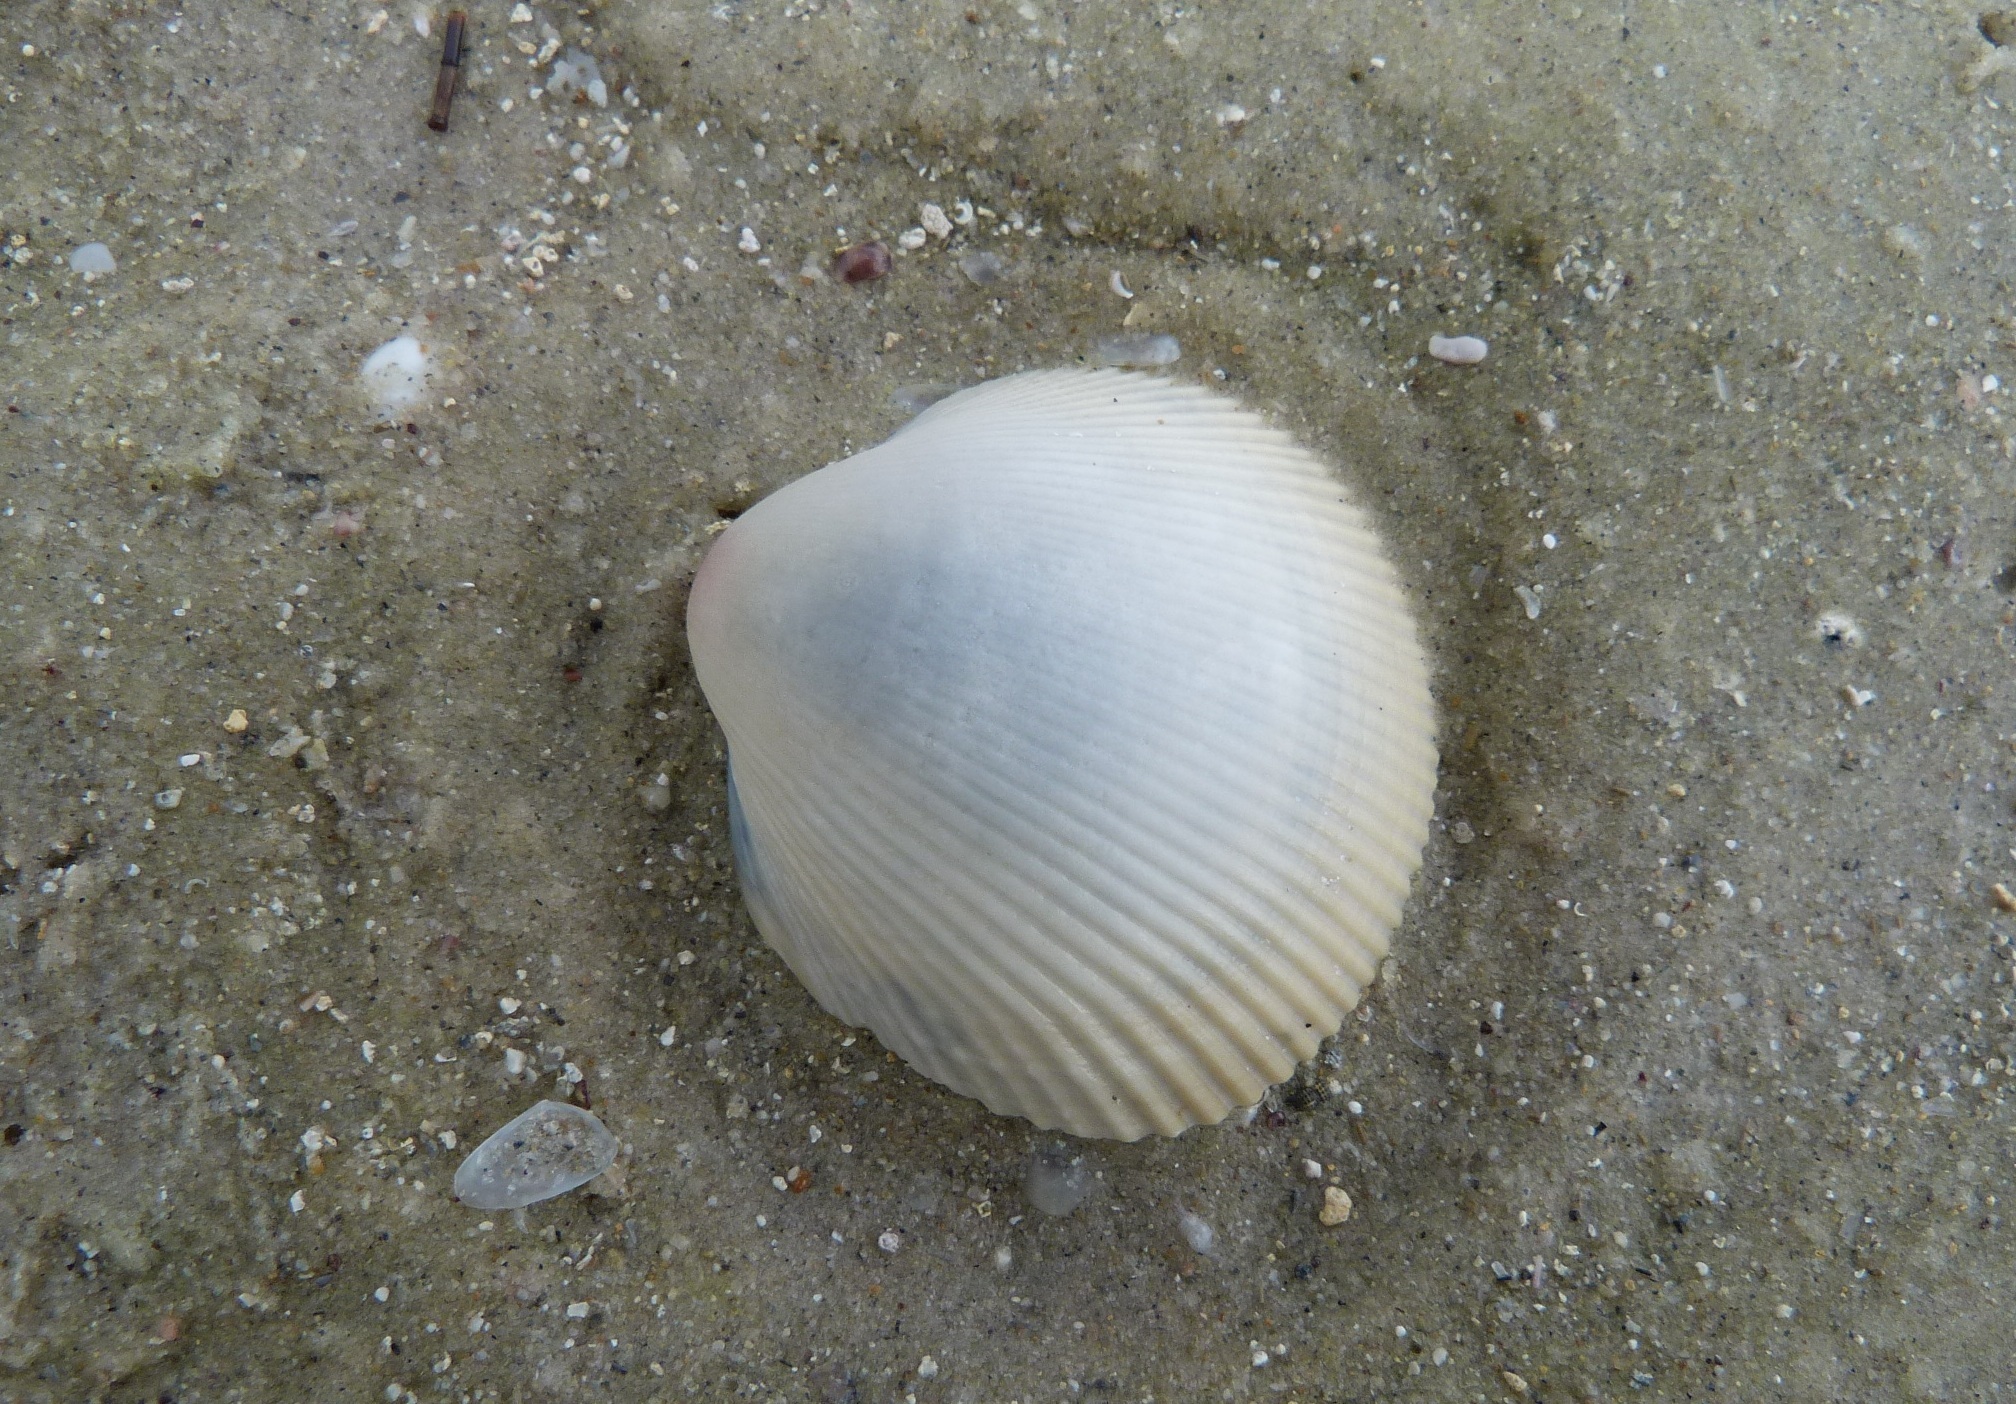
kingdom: Animalia
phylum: Mollusca
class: Bivalvia
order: Cardiida
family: Cardiidae
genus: Fulvia
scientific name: Fulvia tenuicostata
